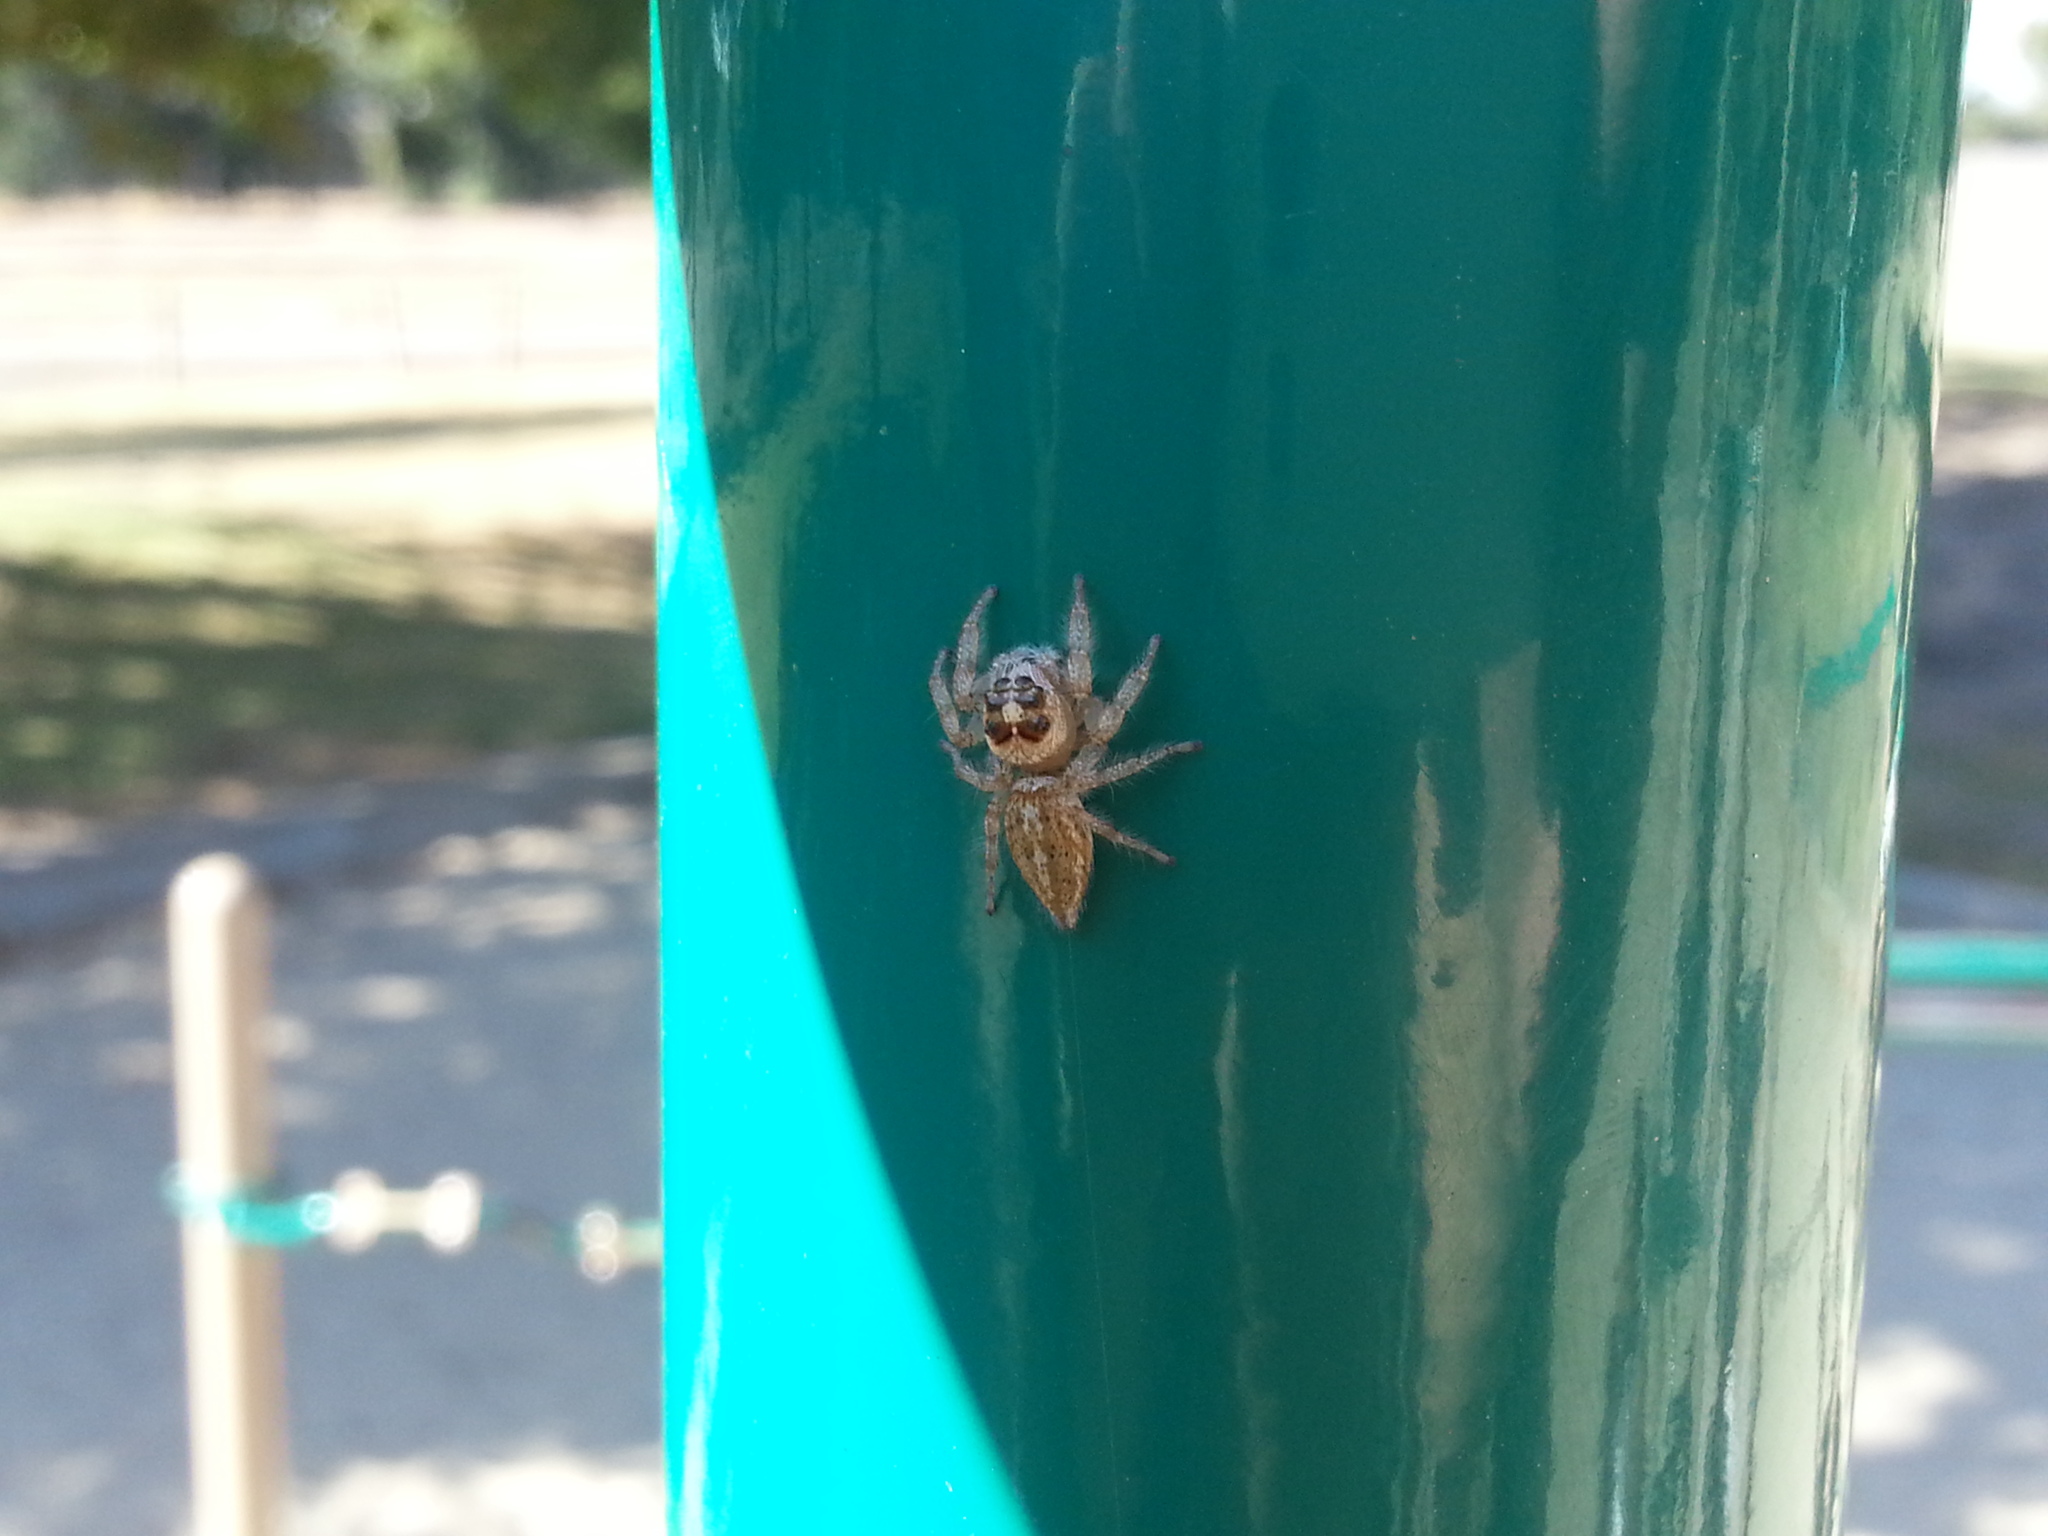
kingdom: Animalia
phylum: Arthropoda
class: Arachnida
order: Araneae
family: Salticidae
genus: Colonus
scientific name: Colonus hesperus
